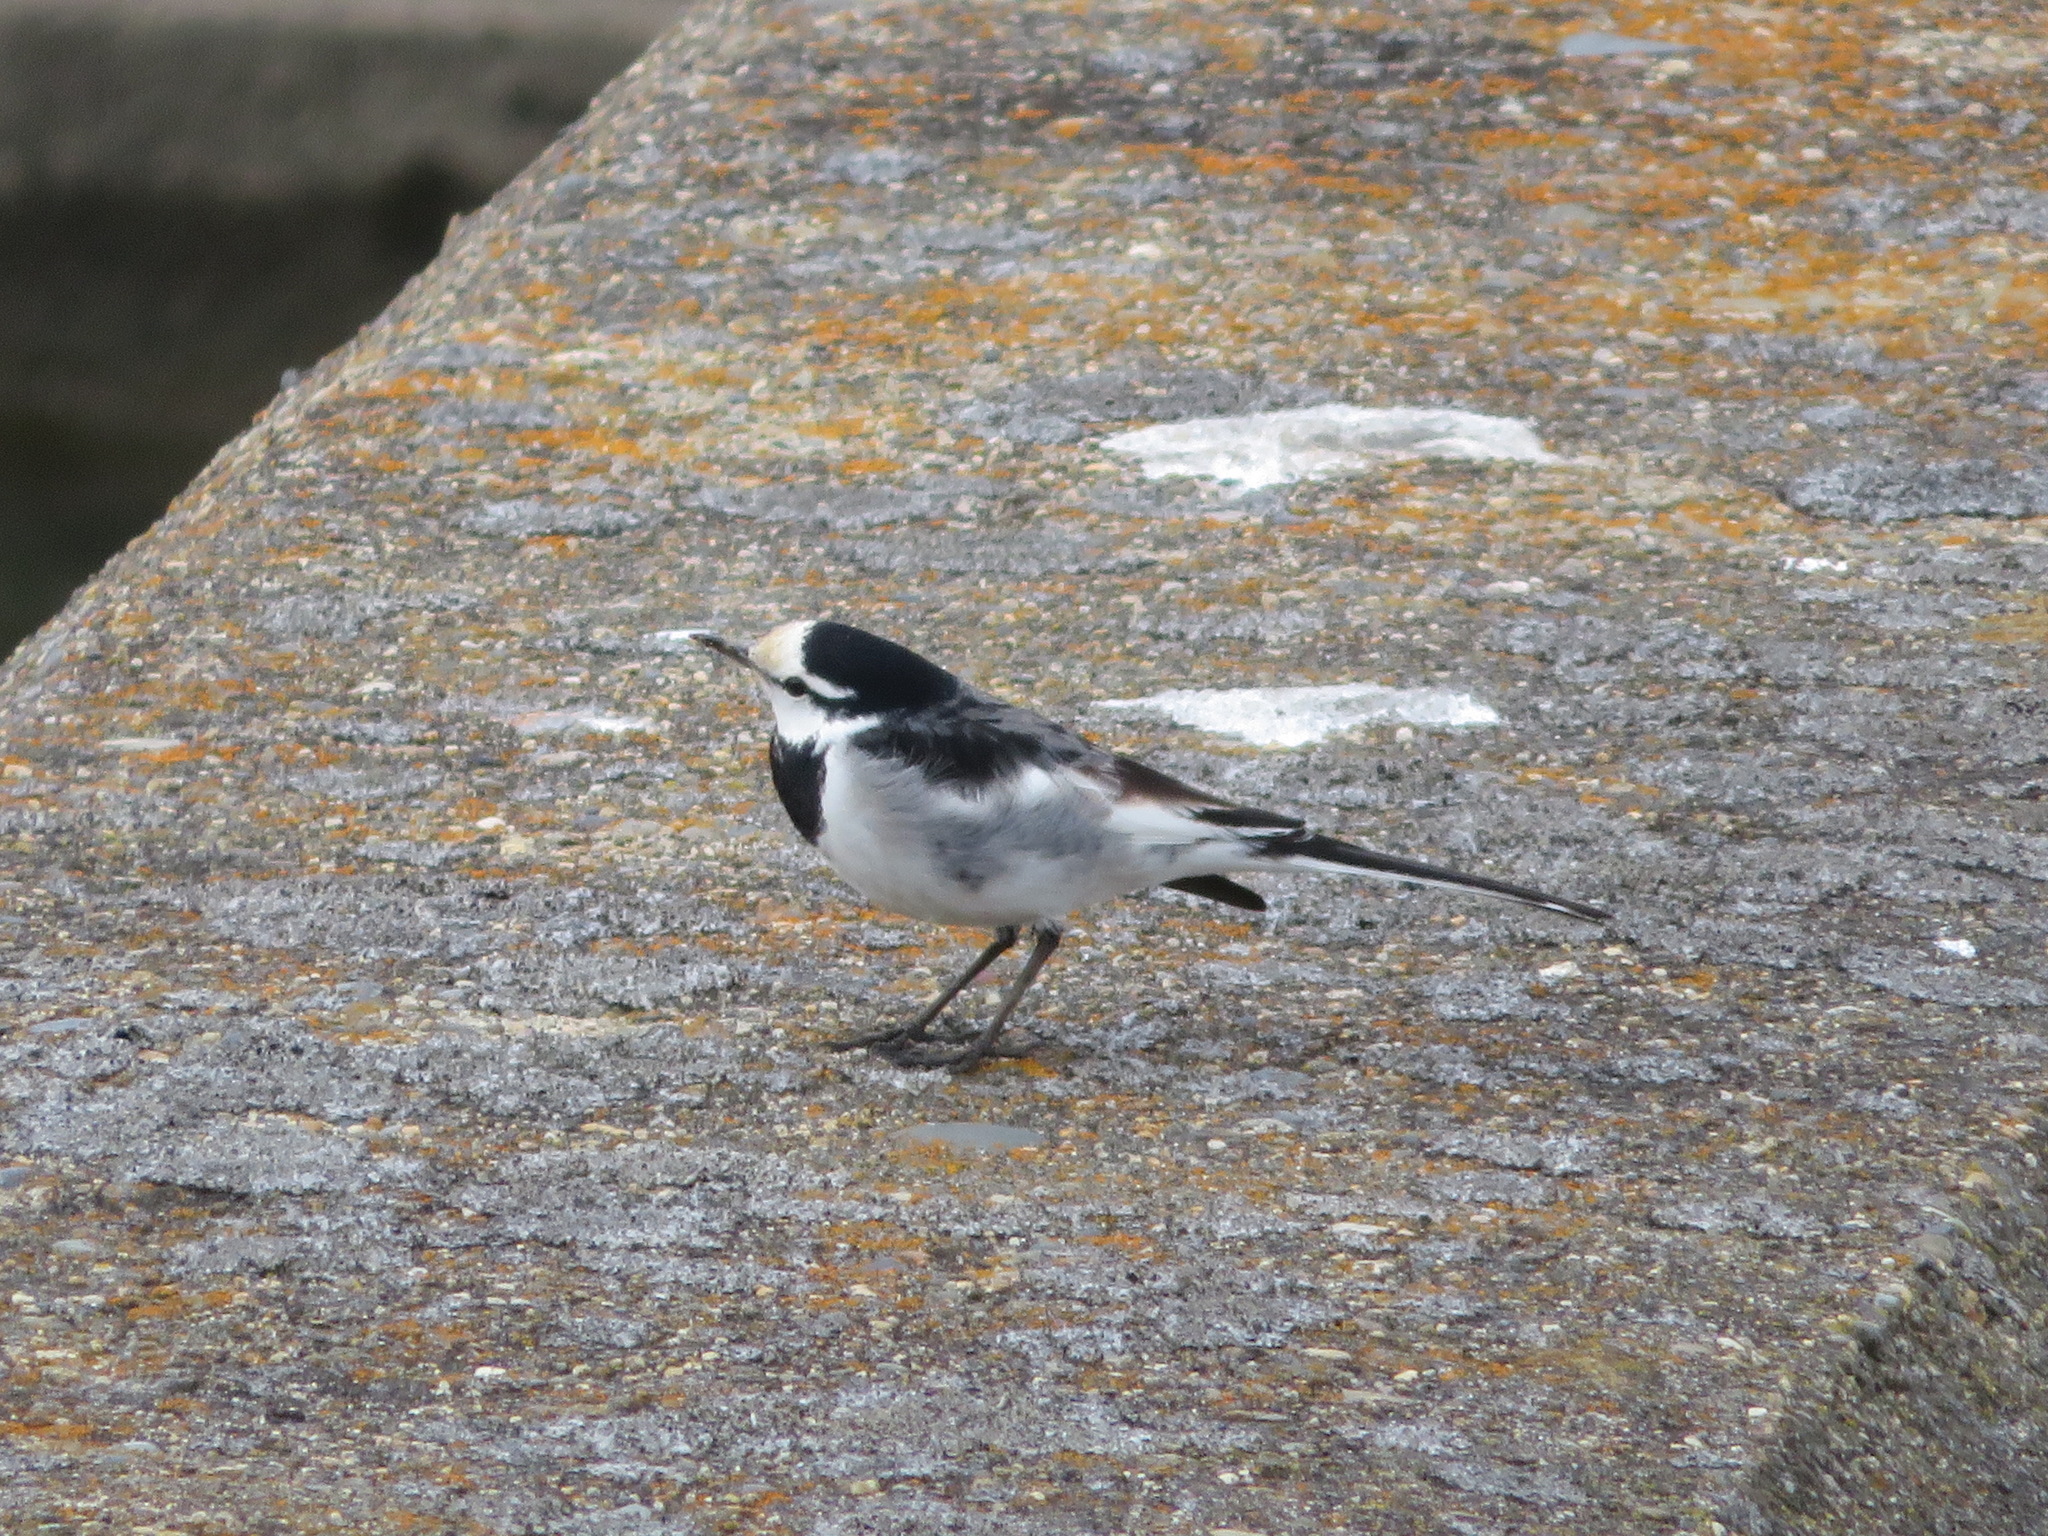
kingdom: Animalia
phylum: Chordata
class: Aves
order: Passeriformes
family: Motacillidae
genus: Motacilla
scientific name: Motacilla alba
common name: White wagtail
